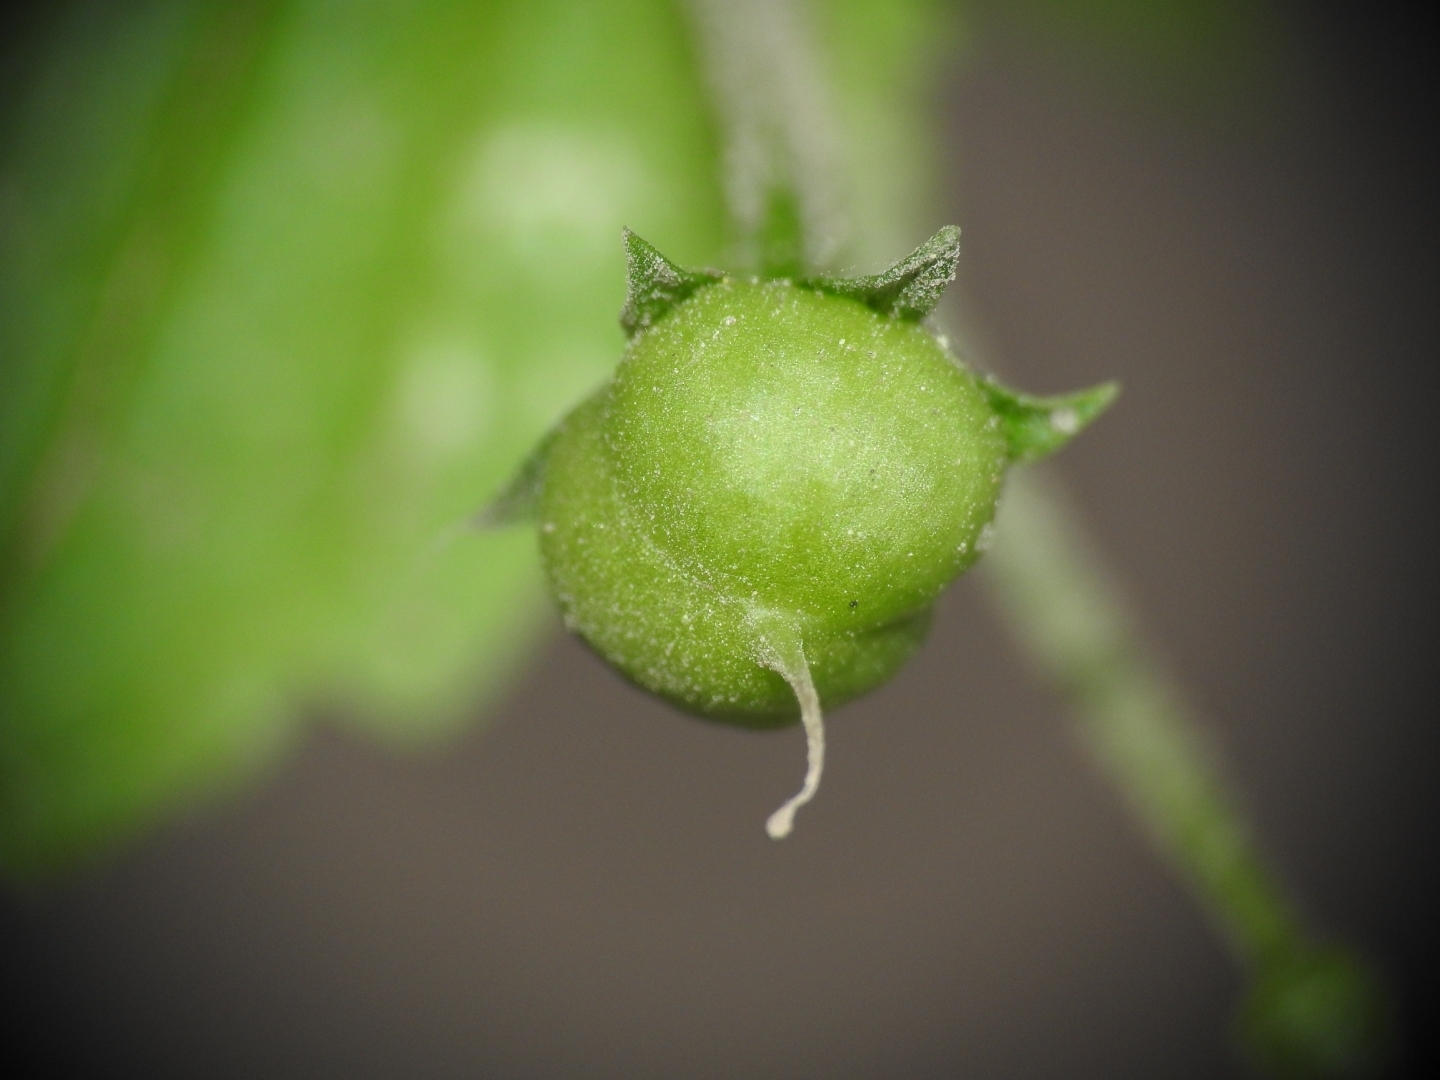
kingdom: Plantae
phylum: Tracheophyta
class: Magnoliopsida
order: Lamiales
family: Scrophulariaceae
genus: Scrophularia
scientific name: Scrophularia peregrina
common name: Mediterranean figwort
